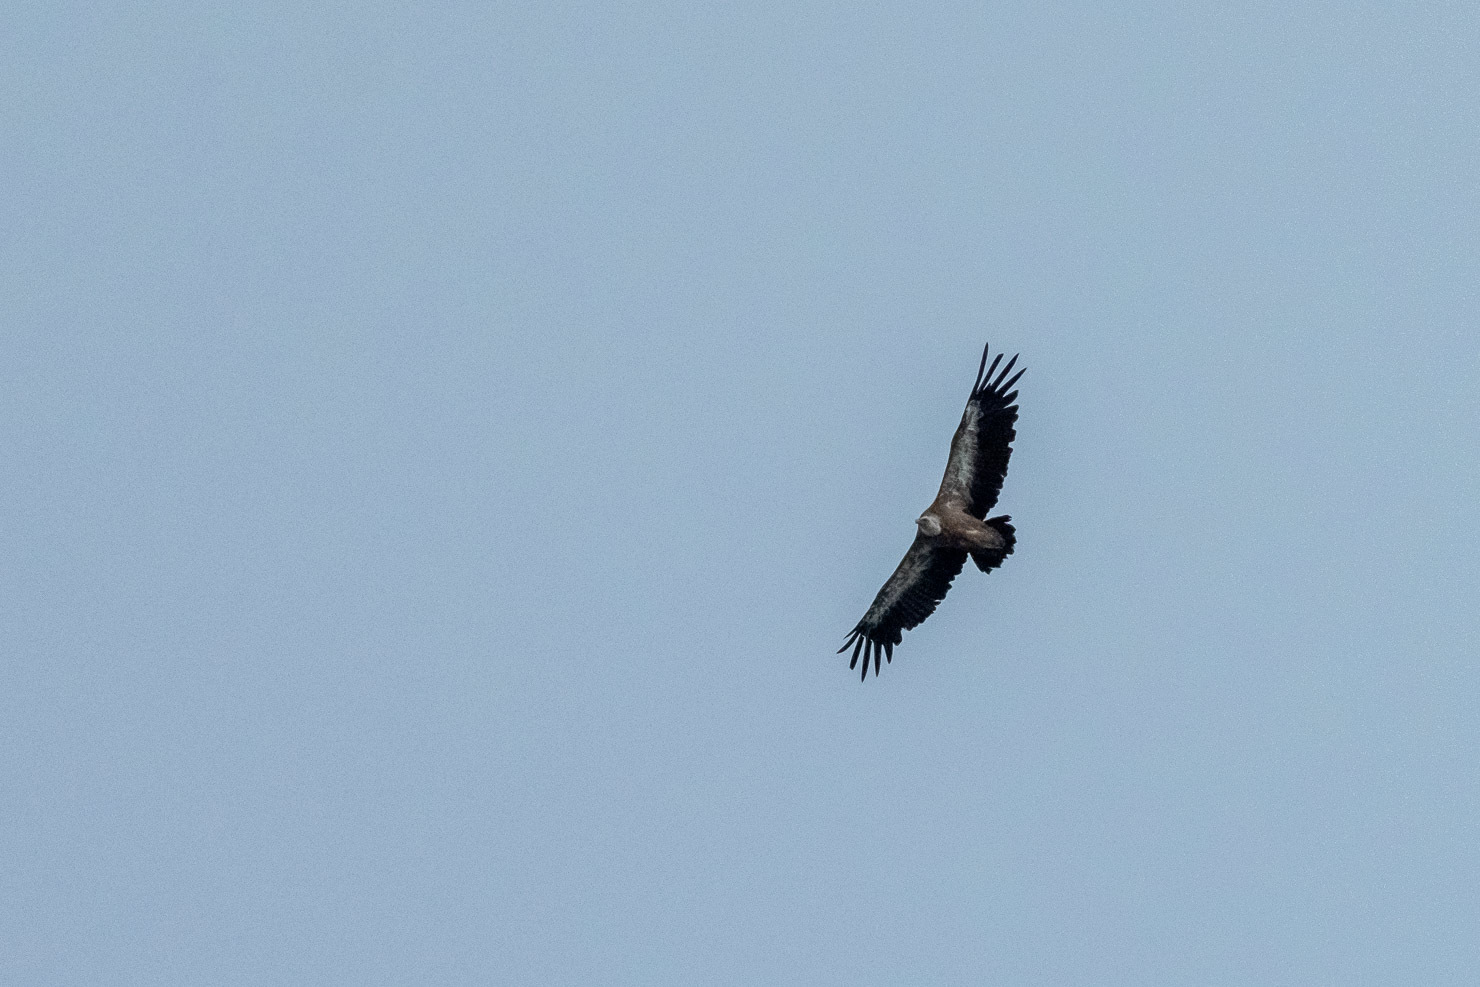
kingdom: Animalia
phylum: Chordata
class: Aves
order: Accipitriformes
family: Accipitridae
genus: Gyps
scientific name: Gyps fulvus
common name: Griffon vulture
